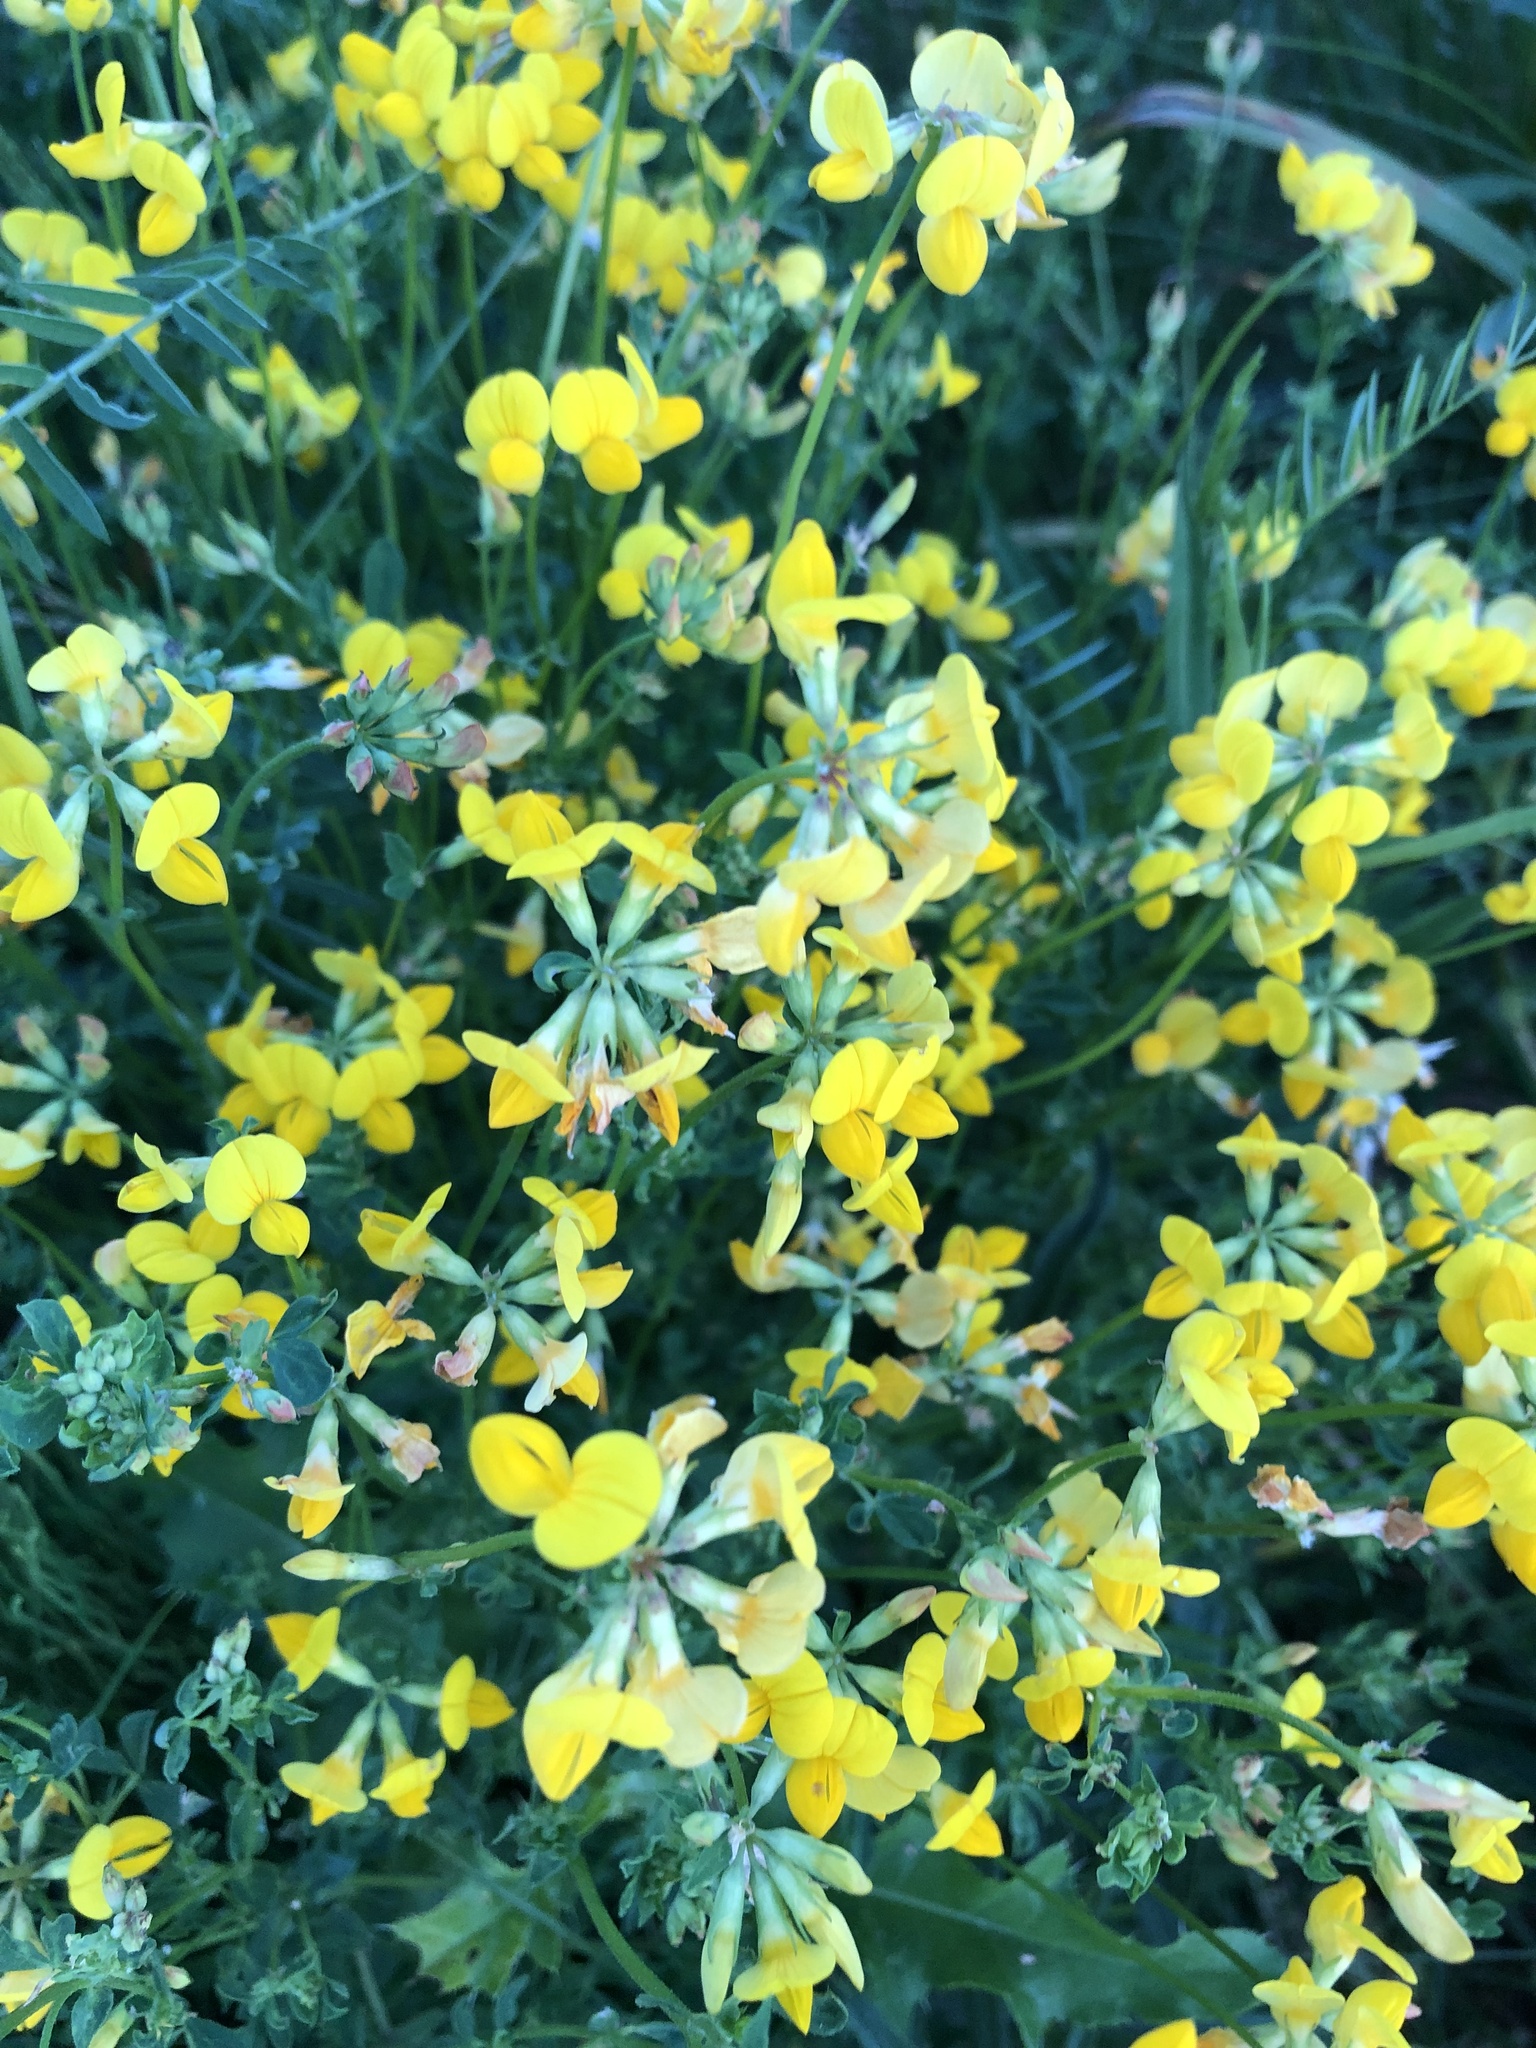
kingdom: Plantae
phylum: Tracheophyta
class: Magnoliopsida
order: Fabales
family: Fabaceae
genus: Lotus
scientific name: Lotus corniculatus
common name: Common bird's-foot-trefoil
